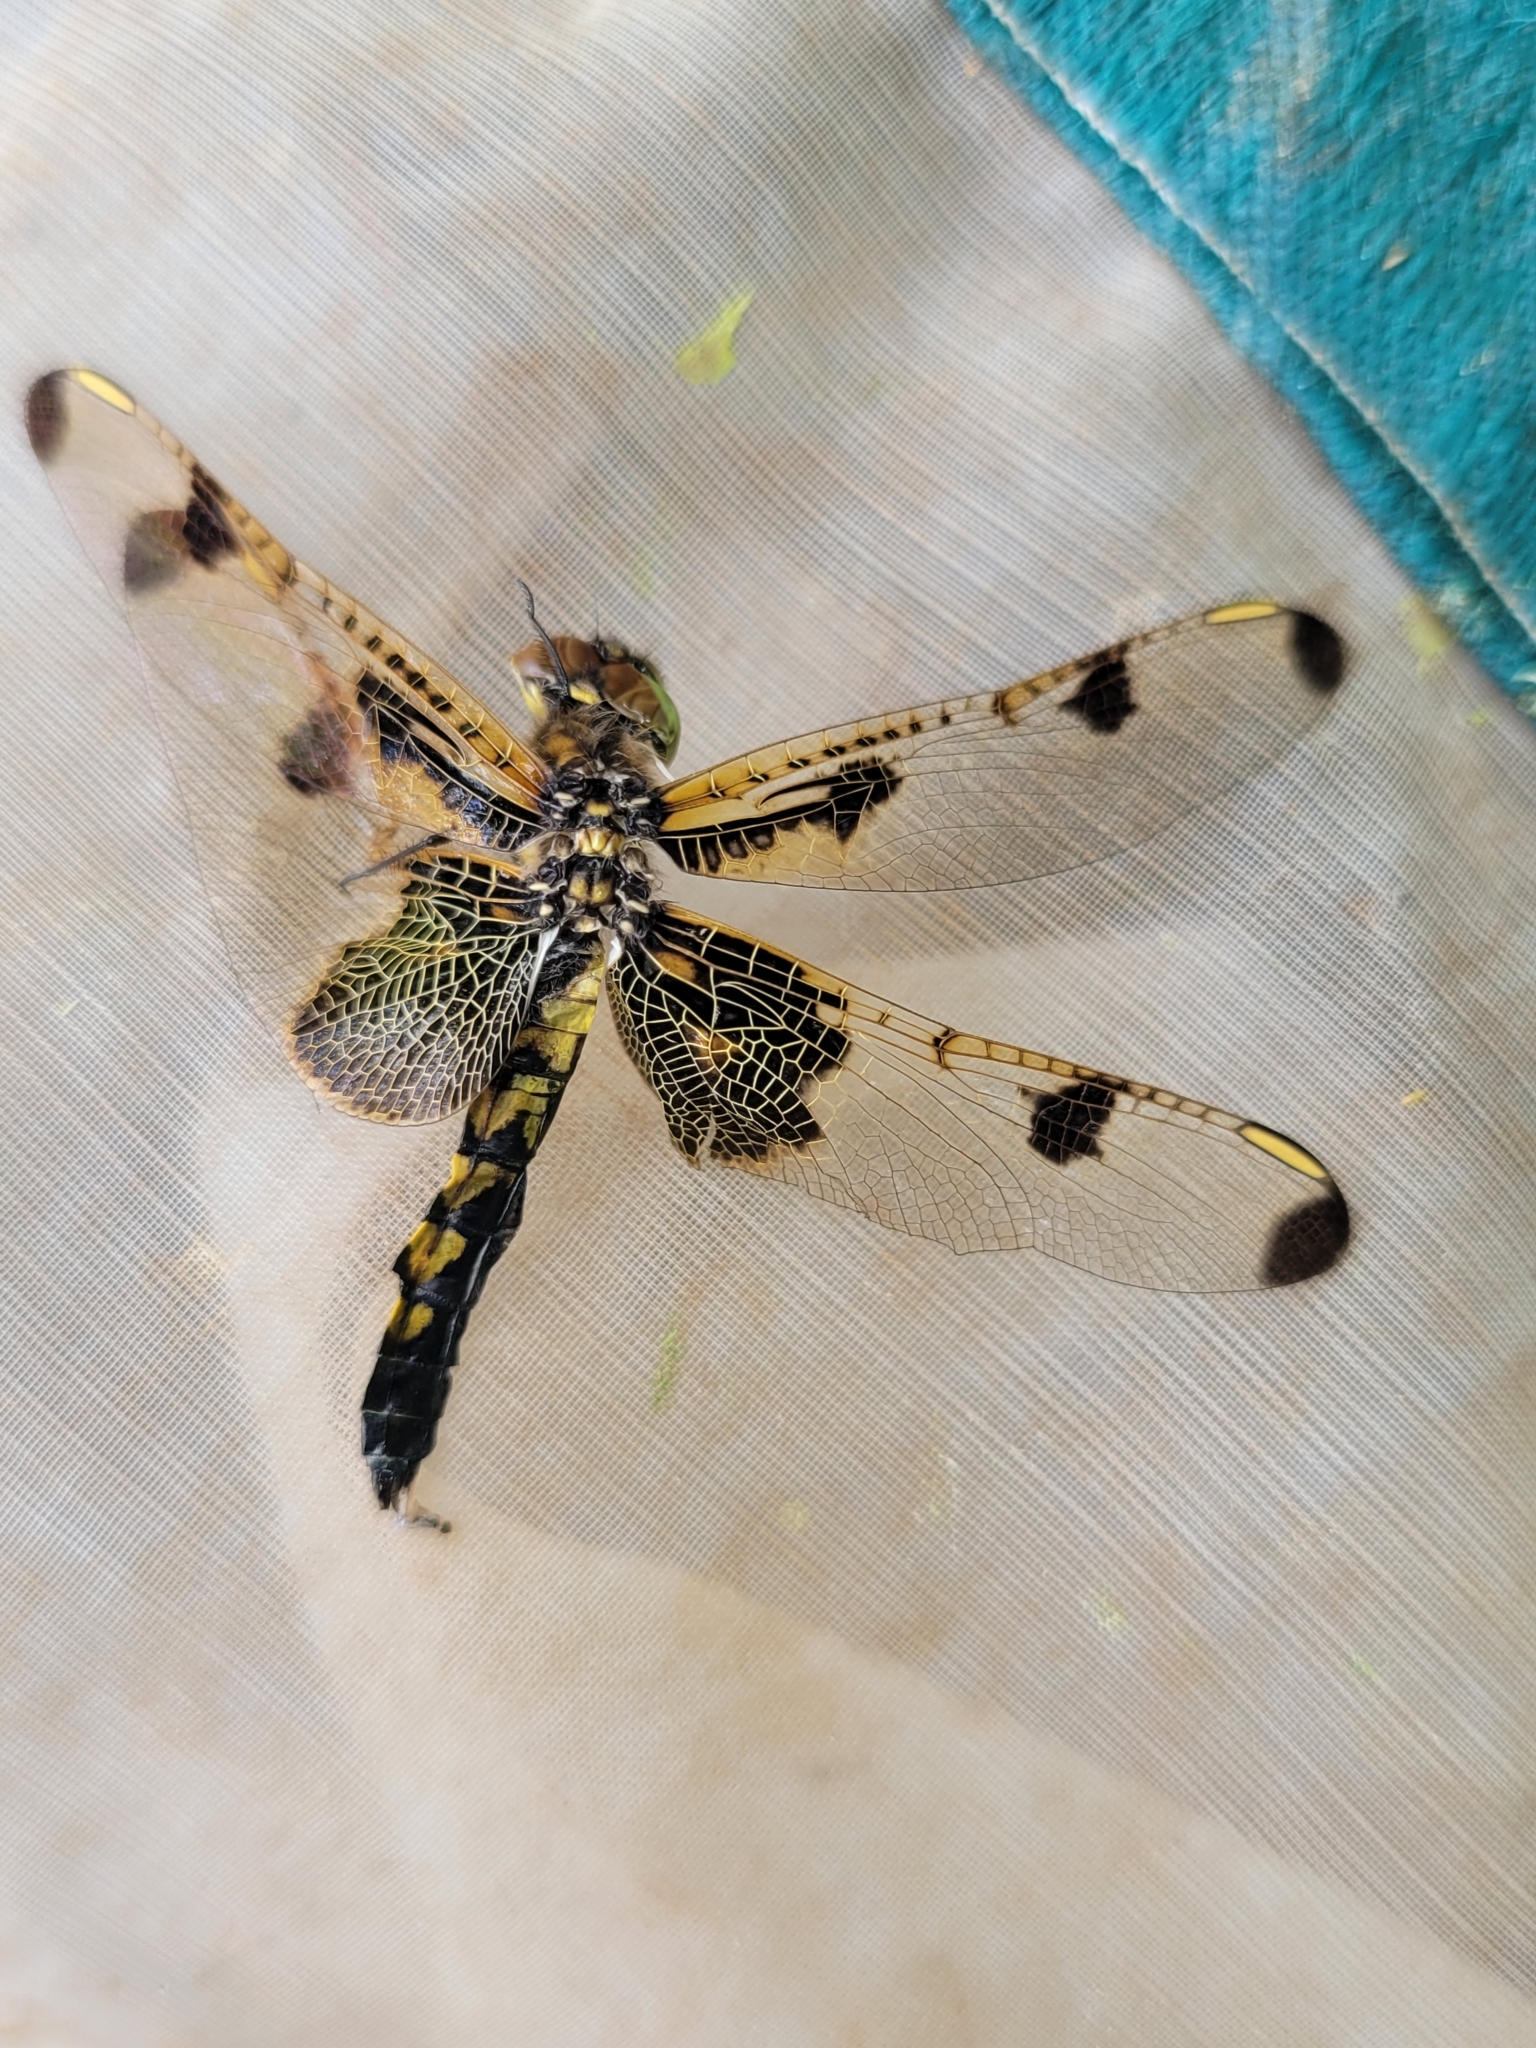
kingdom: Animalia
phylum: Arthropoda
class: Insecta
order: Odonata
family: Libellulidae
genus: Celithemis
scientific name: Celithemis elisa
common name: Calico pennant
